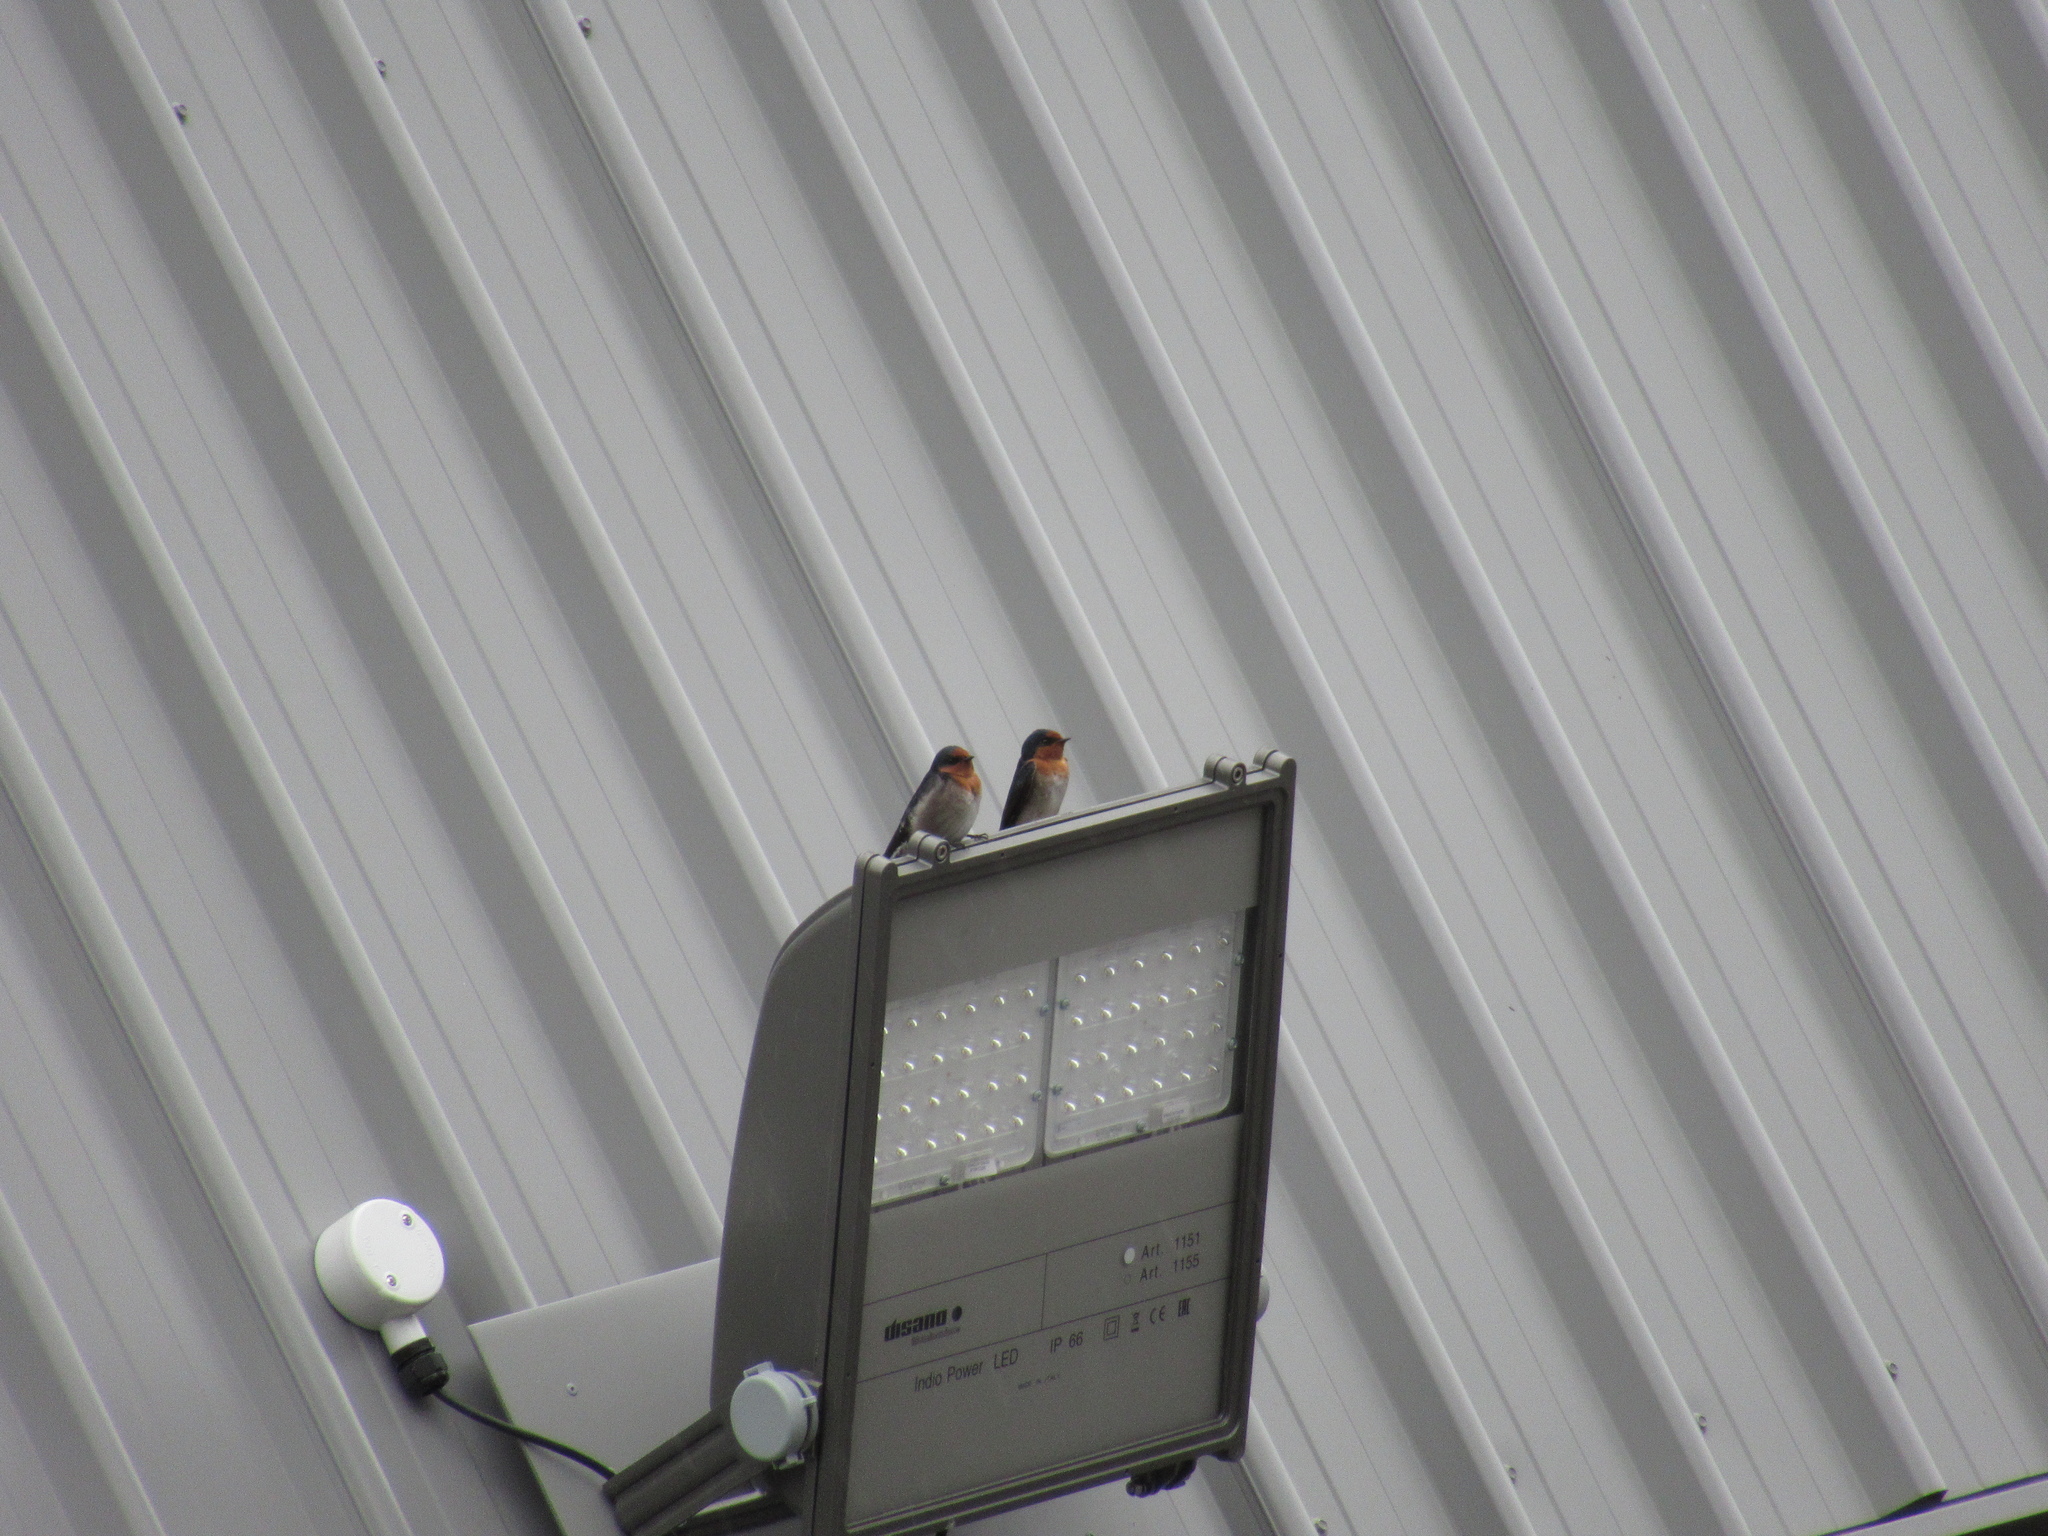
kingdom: Animalia
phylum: Chordata
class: Aves
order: Passeriformes
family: Hirundinidae
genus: Hirundo
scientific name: Hirundo neoxena
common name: Welcome swallow
